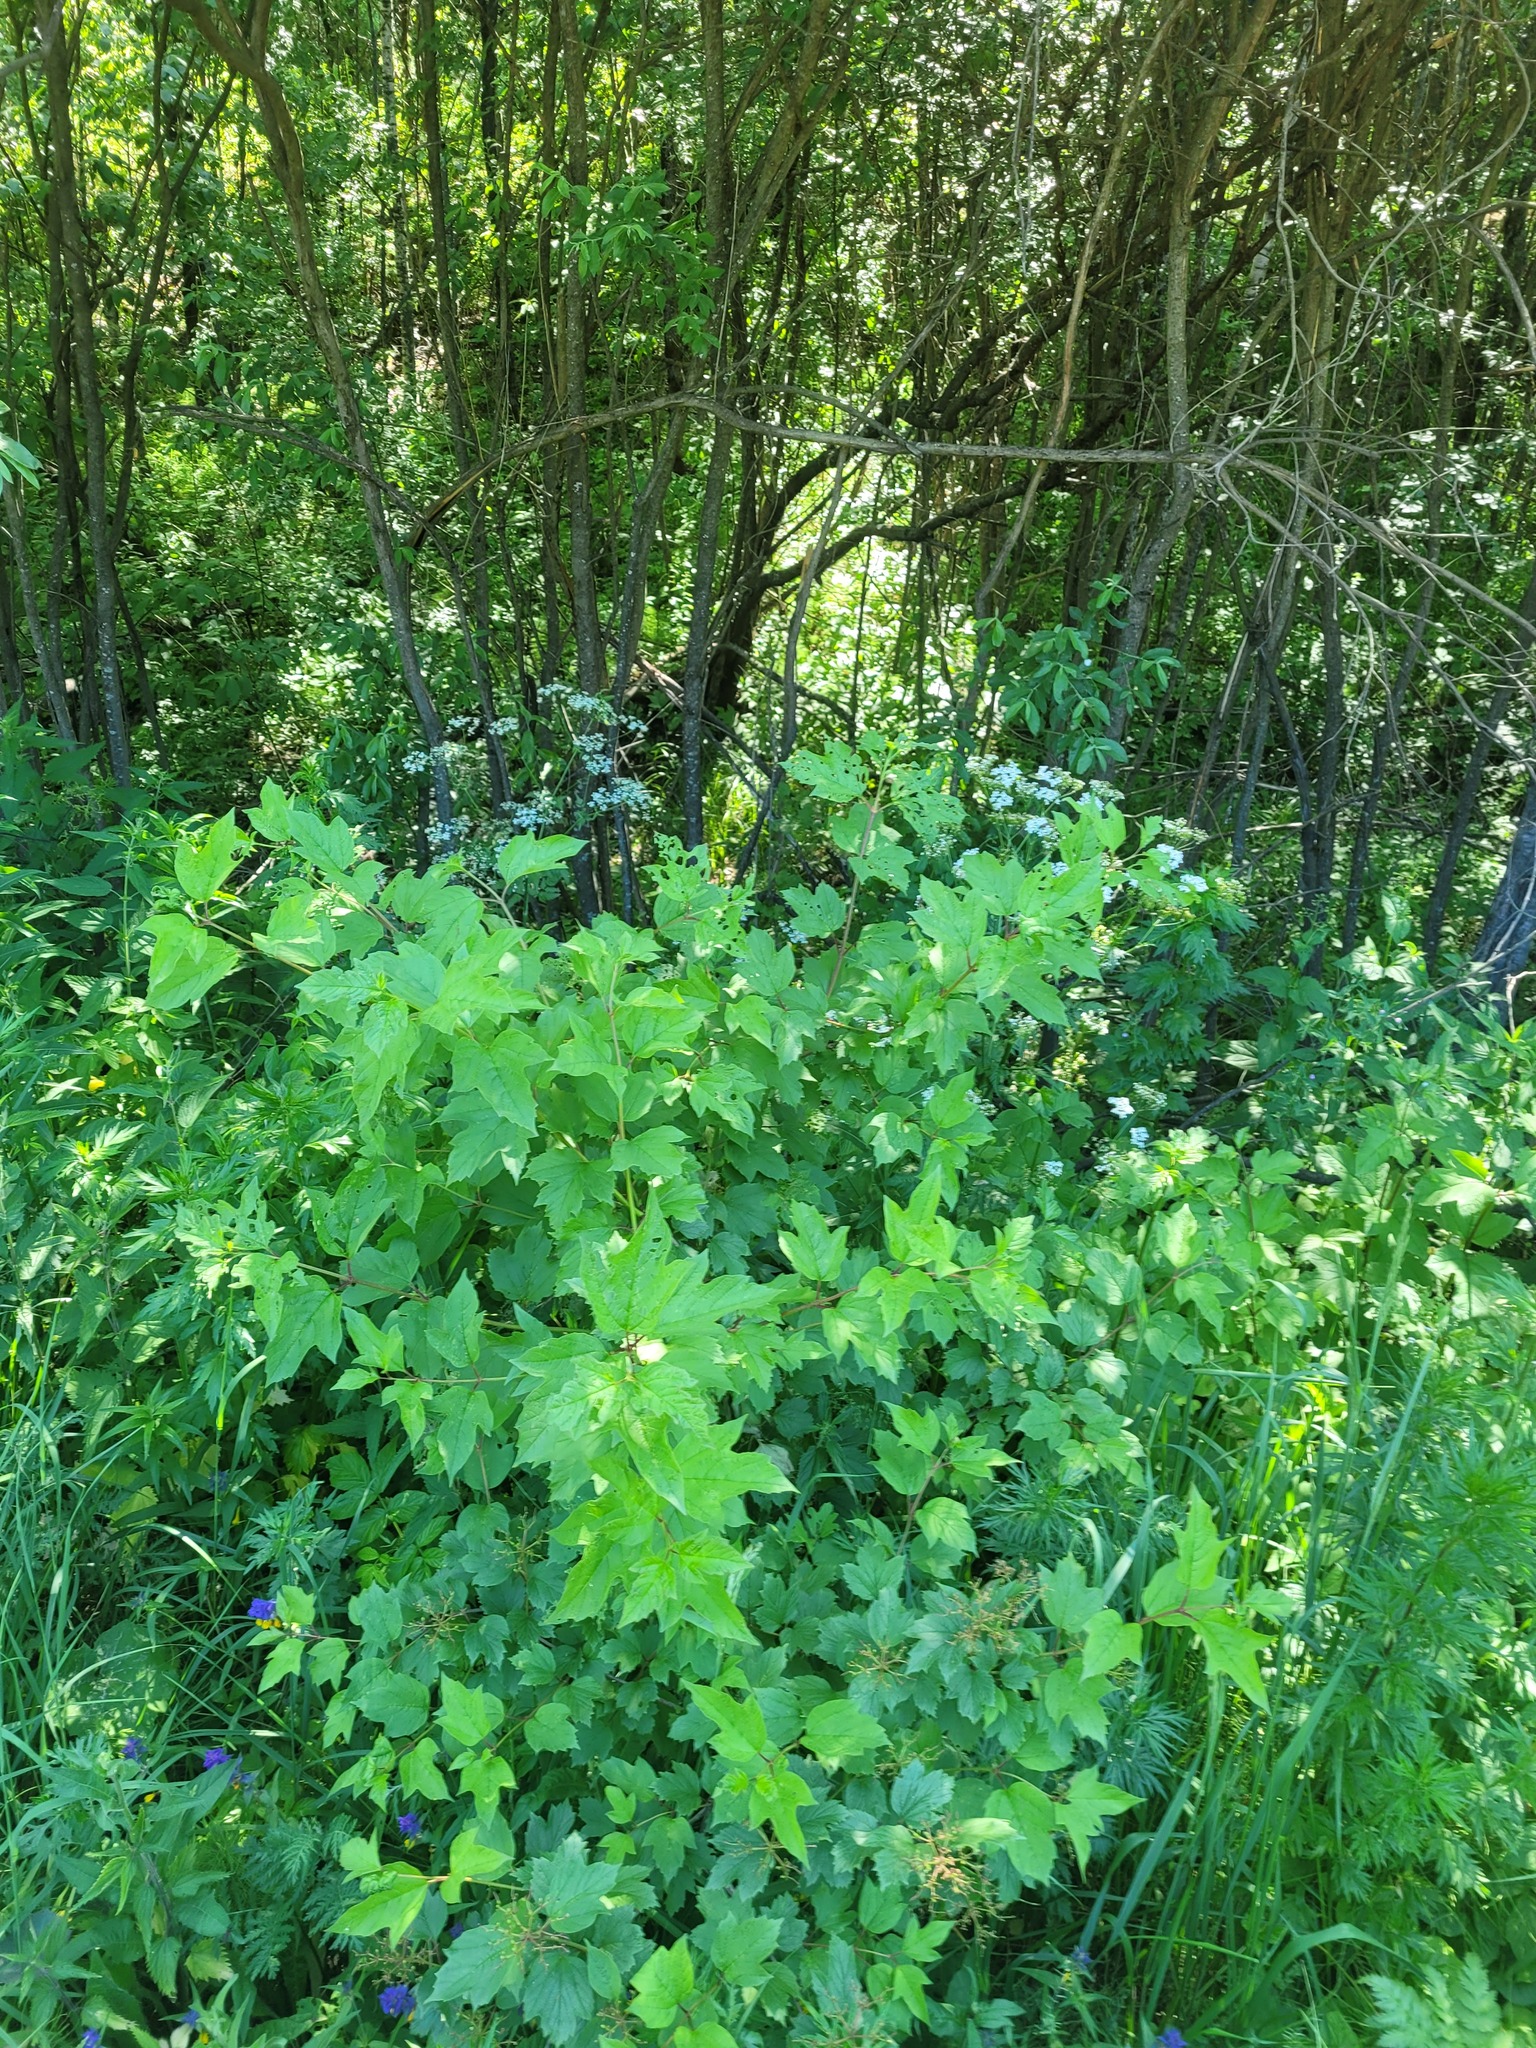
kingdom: Plantae
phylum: Tracheophyta
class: Magnoliopsida
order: Dipsacales
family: Viburnaceae
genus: Viburnum
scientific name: Viburnum opulus
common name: Guelder-rose
